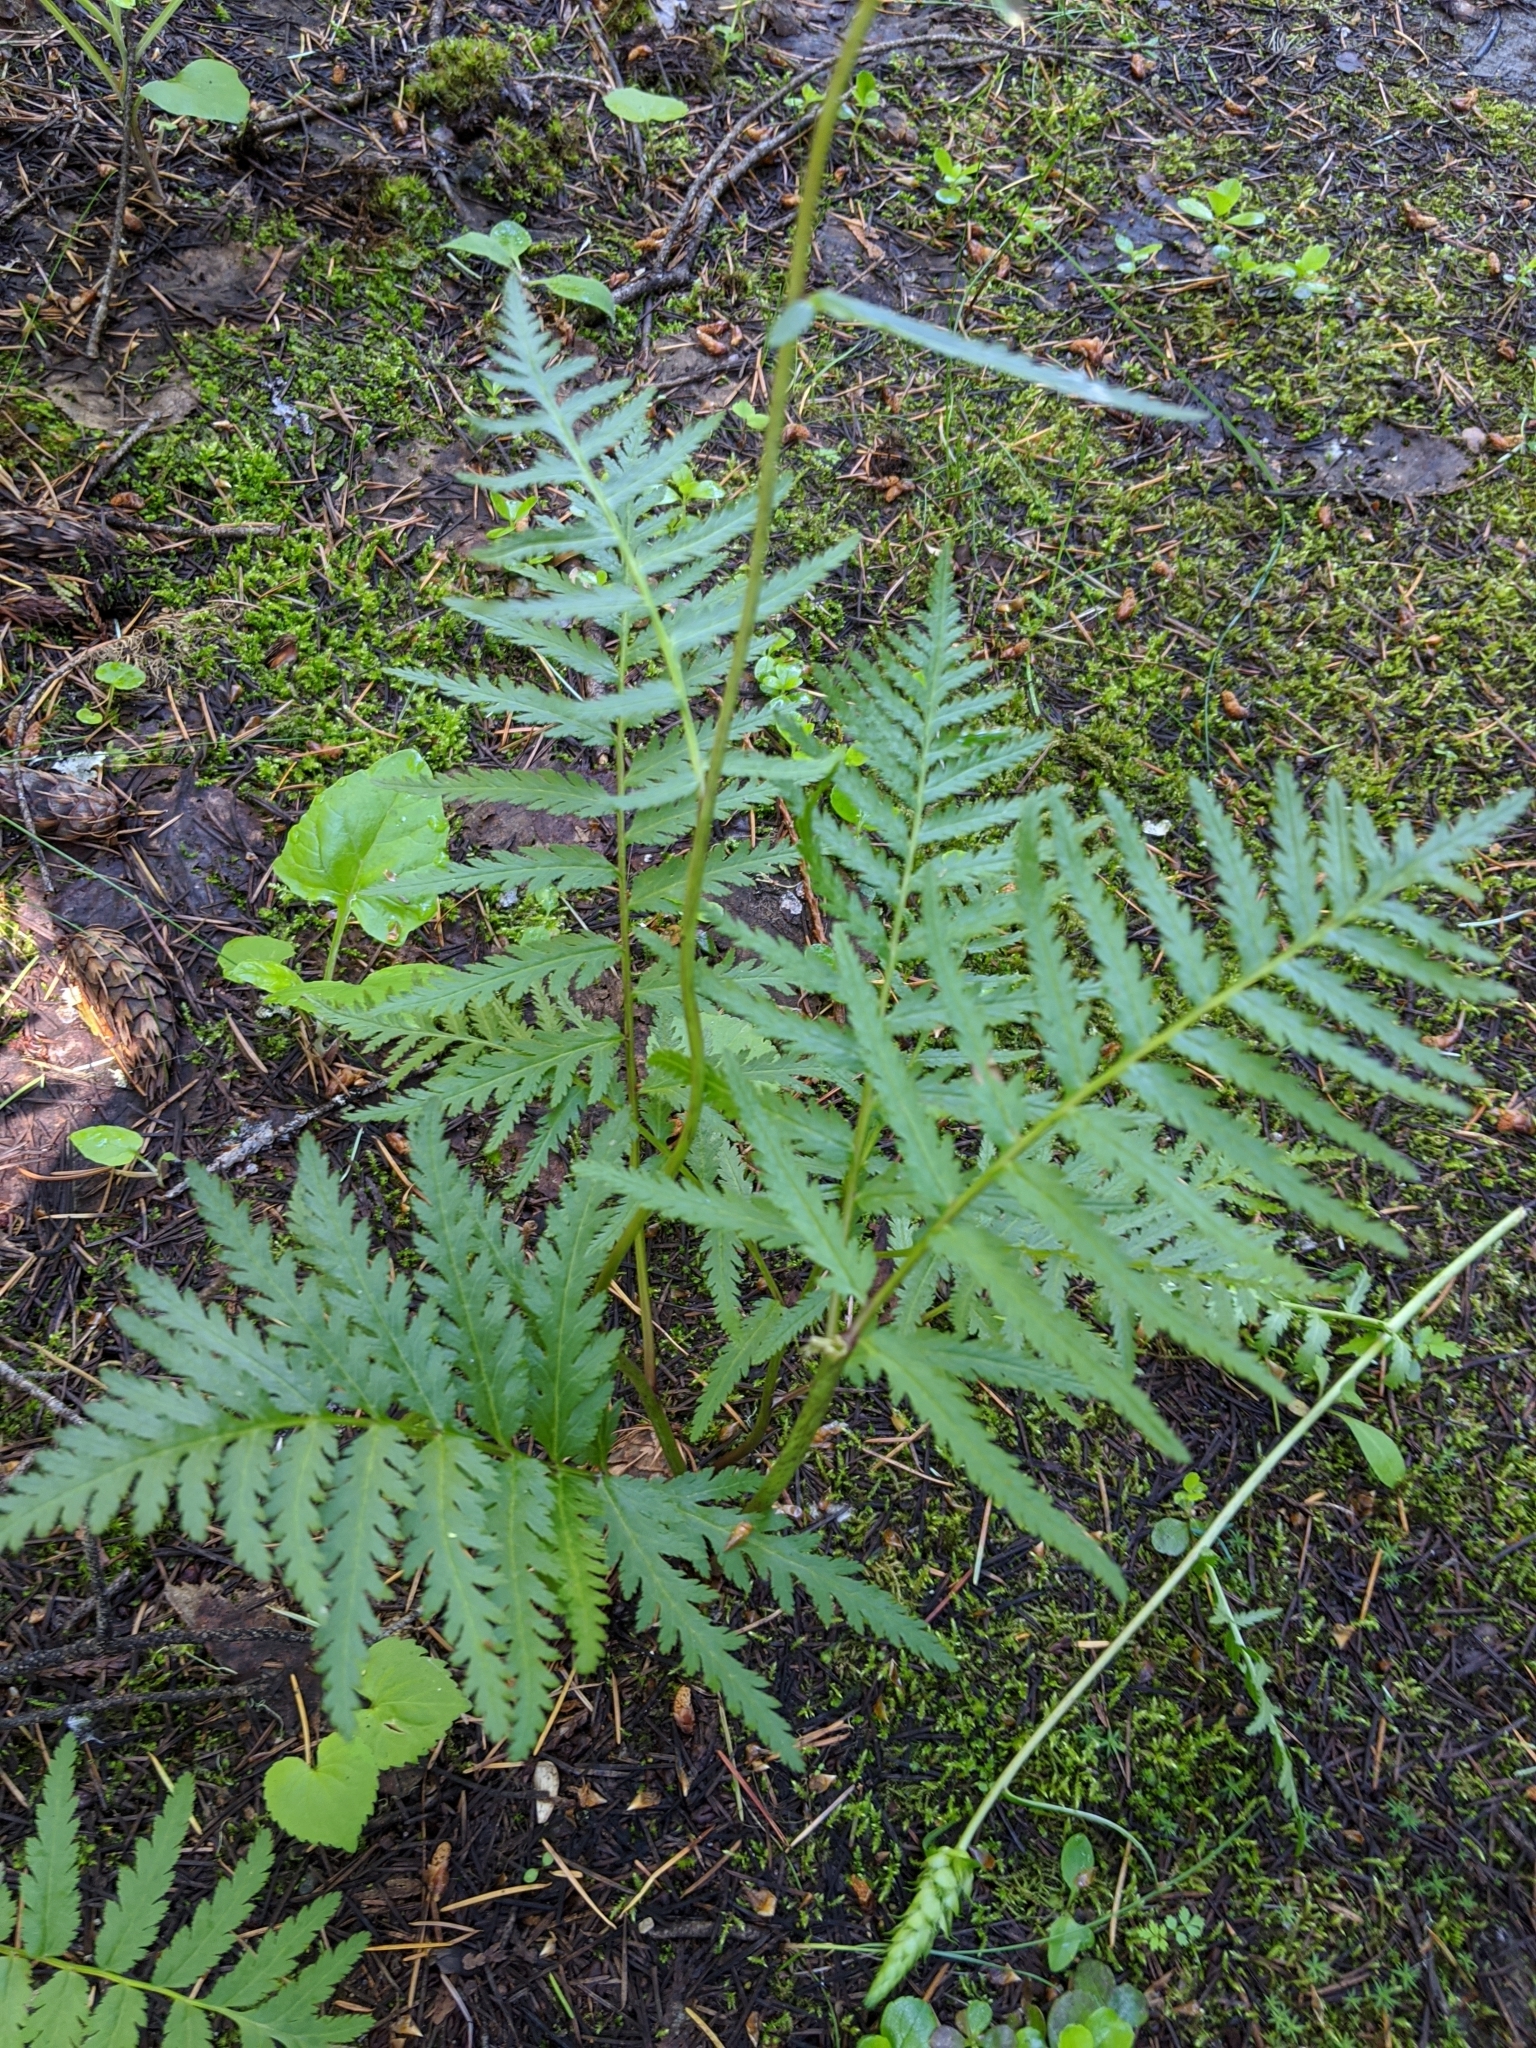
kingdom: Plantae
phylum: Tracheophyta
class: Magnoliopsida
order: Lamiales
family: Orobanchaceae
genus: Pedicularis
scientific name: Pedicularis bracteosa
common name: Bracted lousewort
